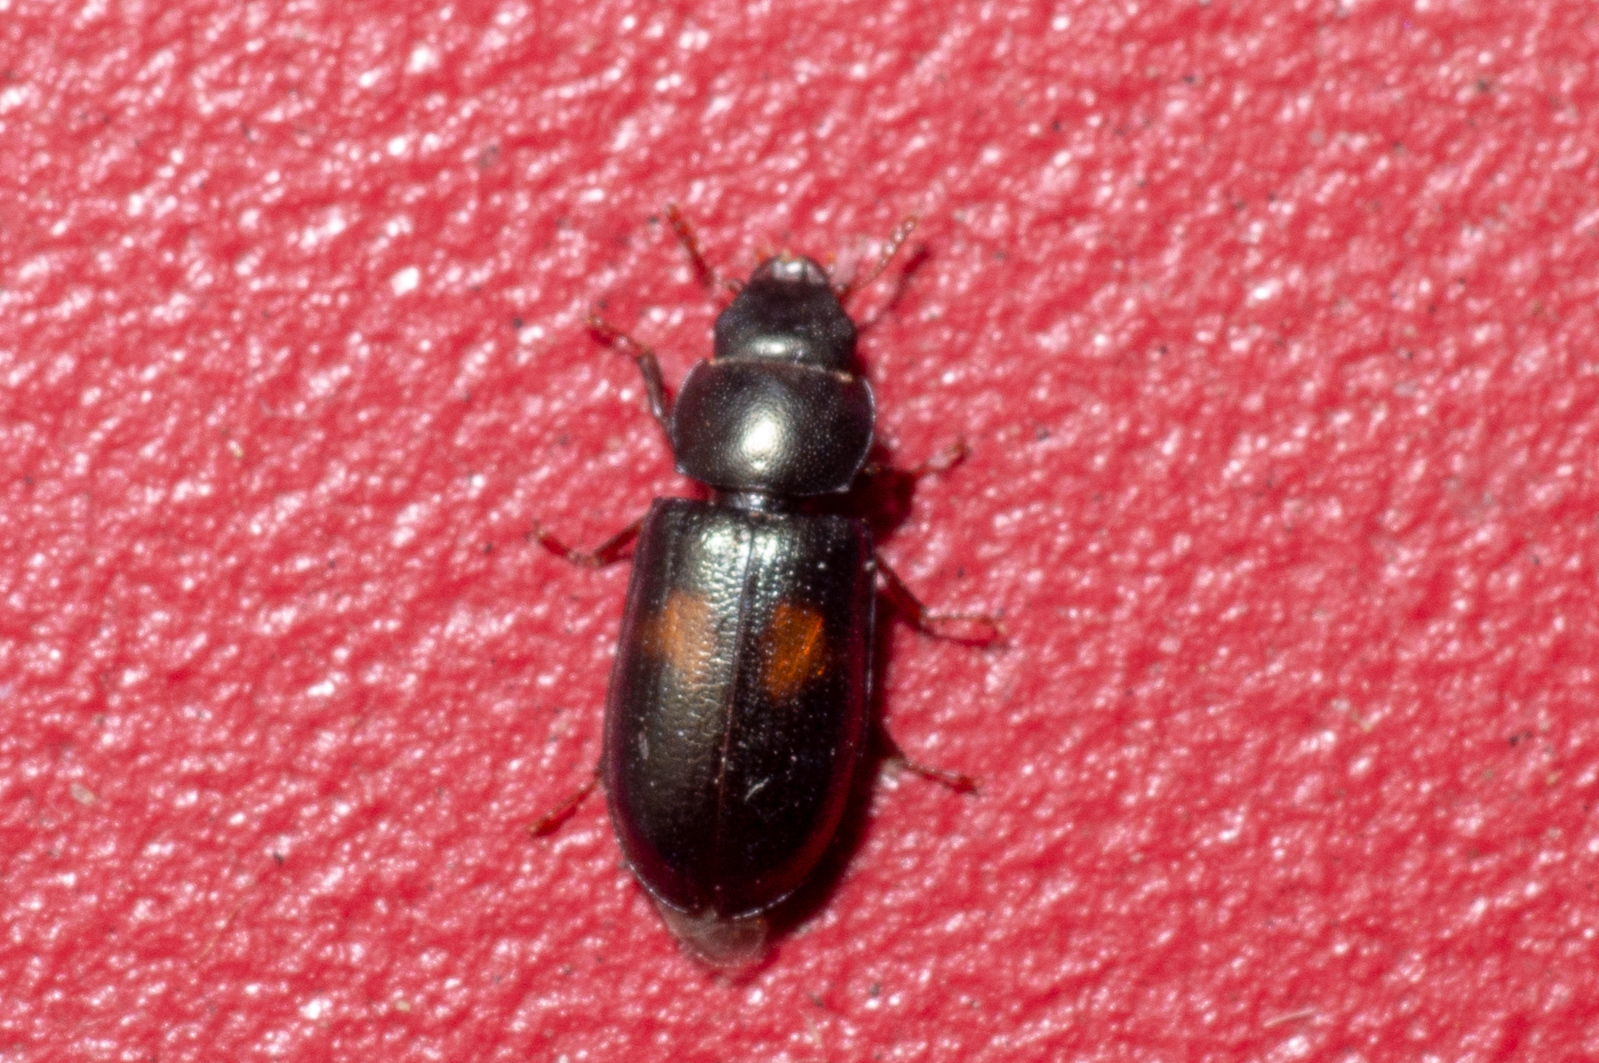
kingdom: Animalia
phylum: Arthropoda
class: Insecta
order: Coleoptera
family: Trogossitidae
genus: Tenebroides
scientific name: Tenebroides
